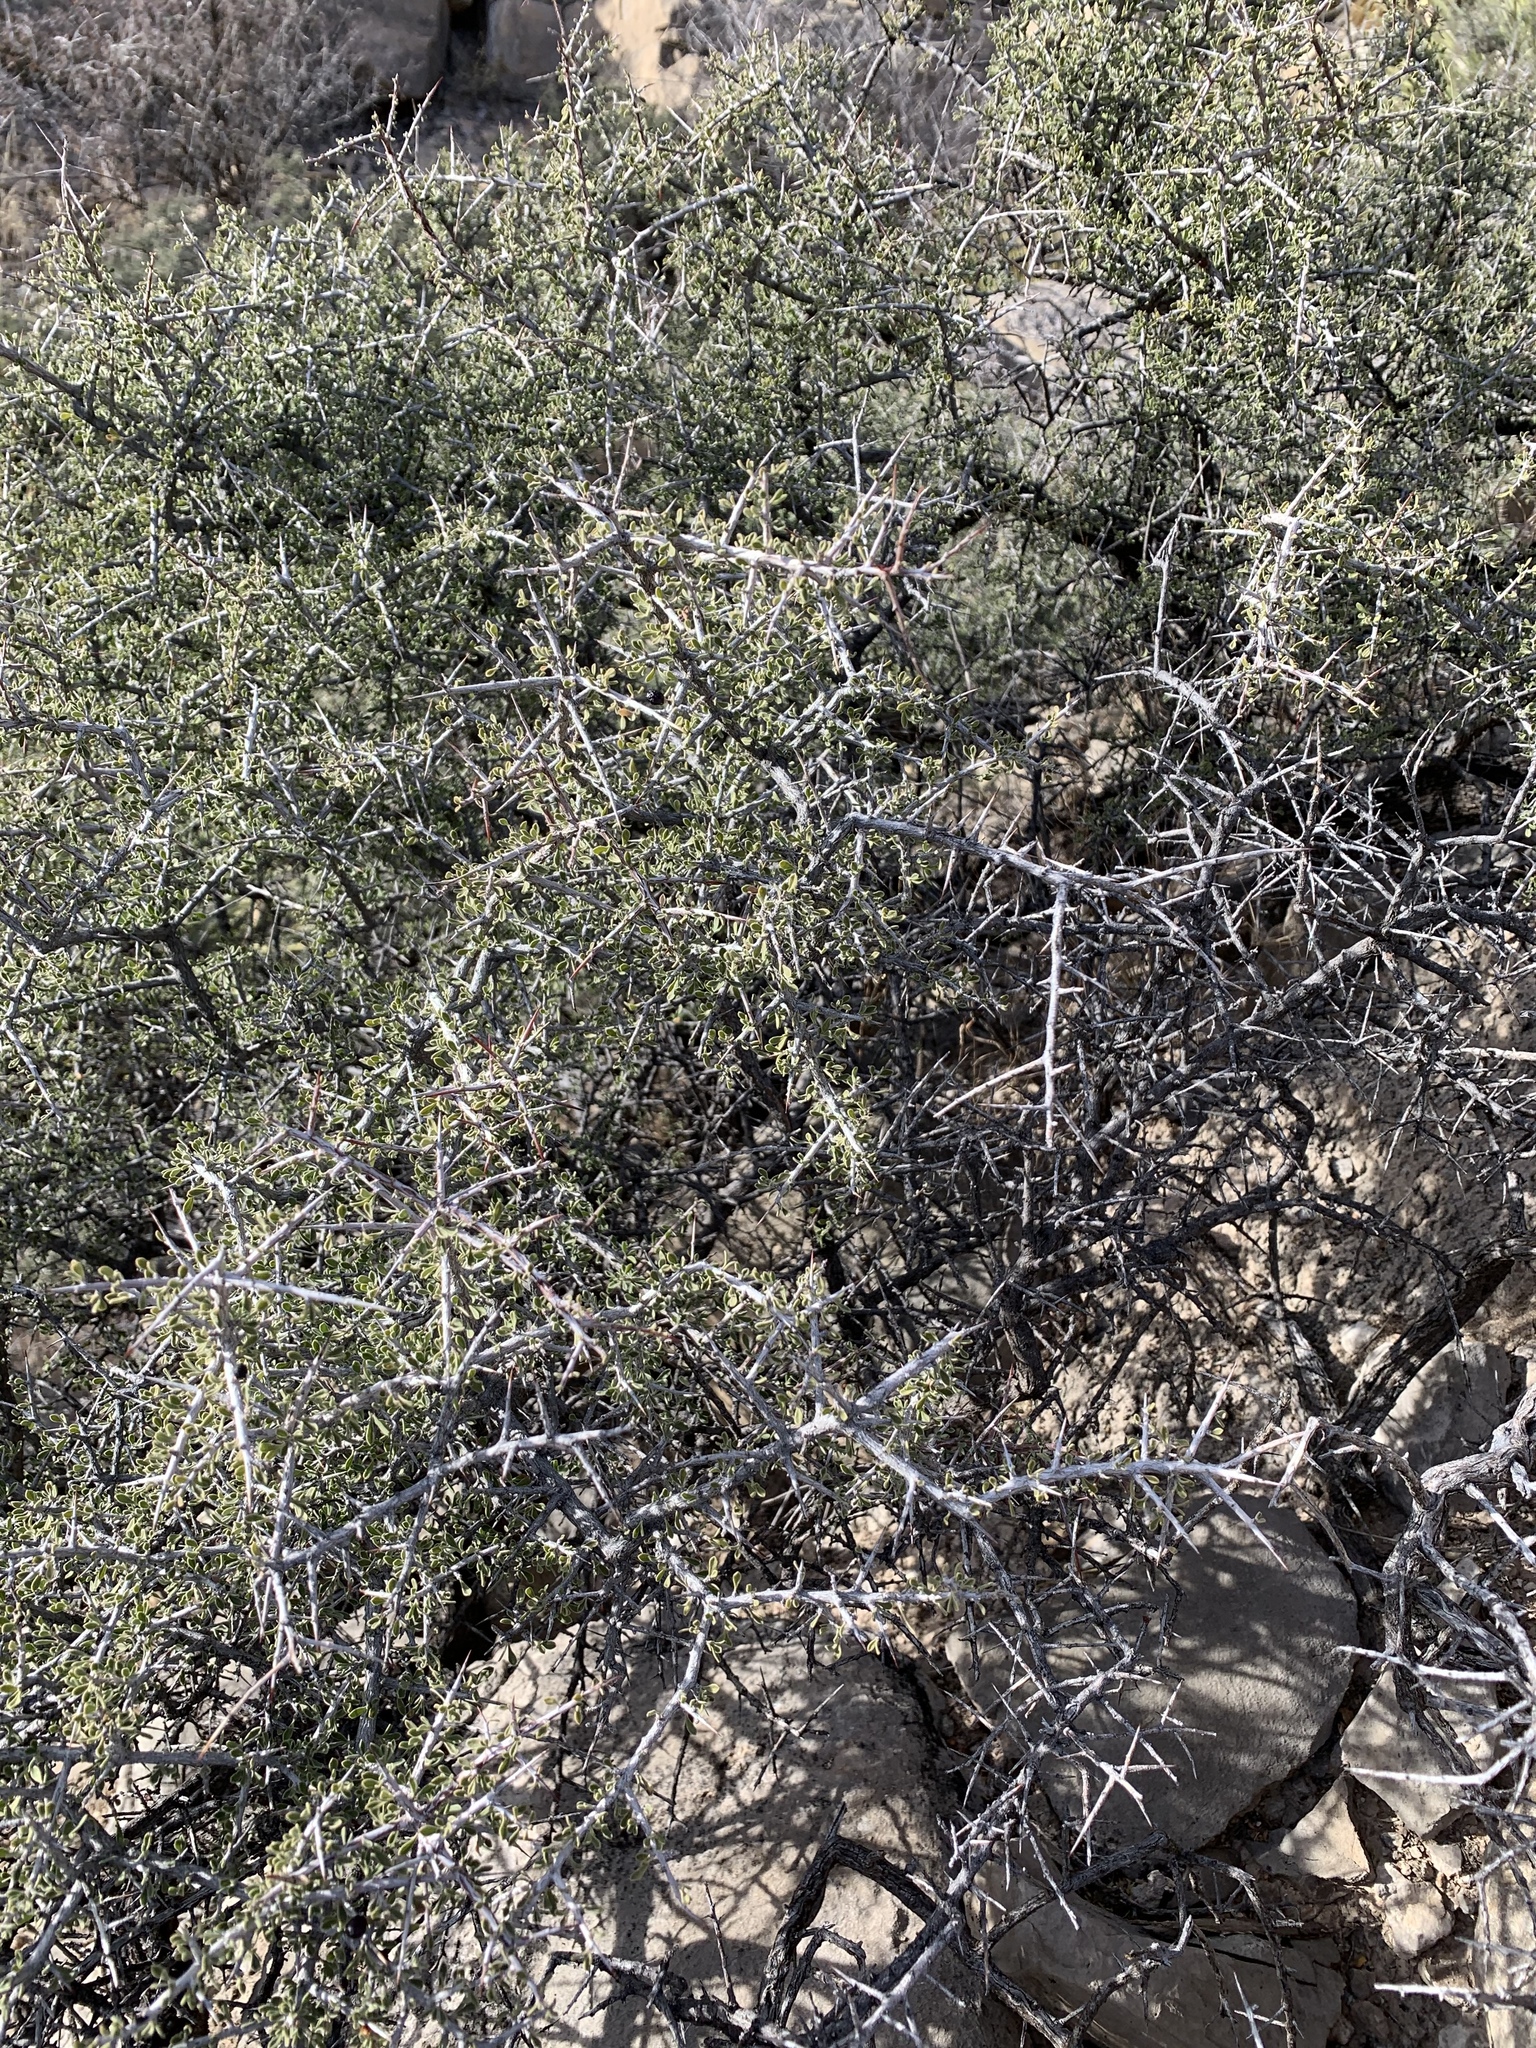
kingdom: Plantae
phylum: Tracheophyta
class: Magnoliopsida
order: Rosales
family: Rhamnaceae
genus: Condalia
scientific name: Condalia warnockii
